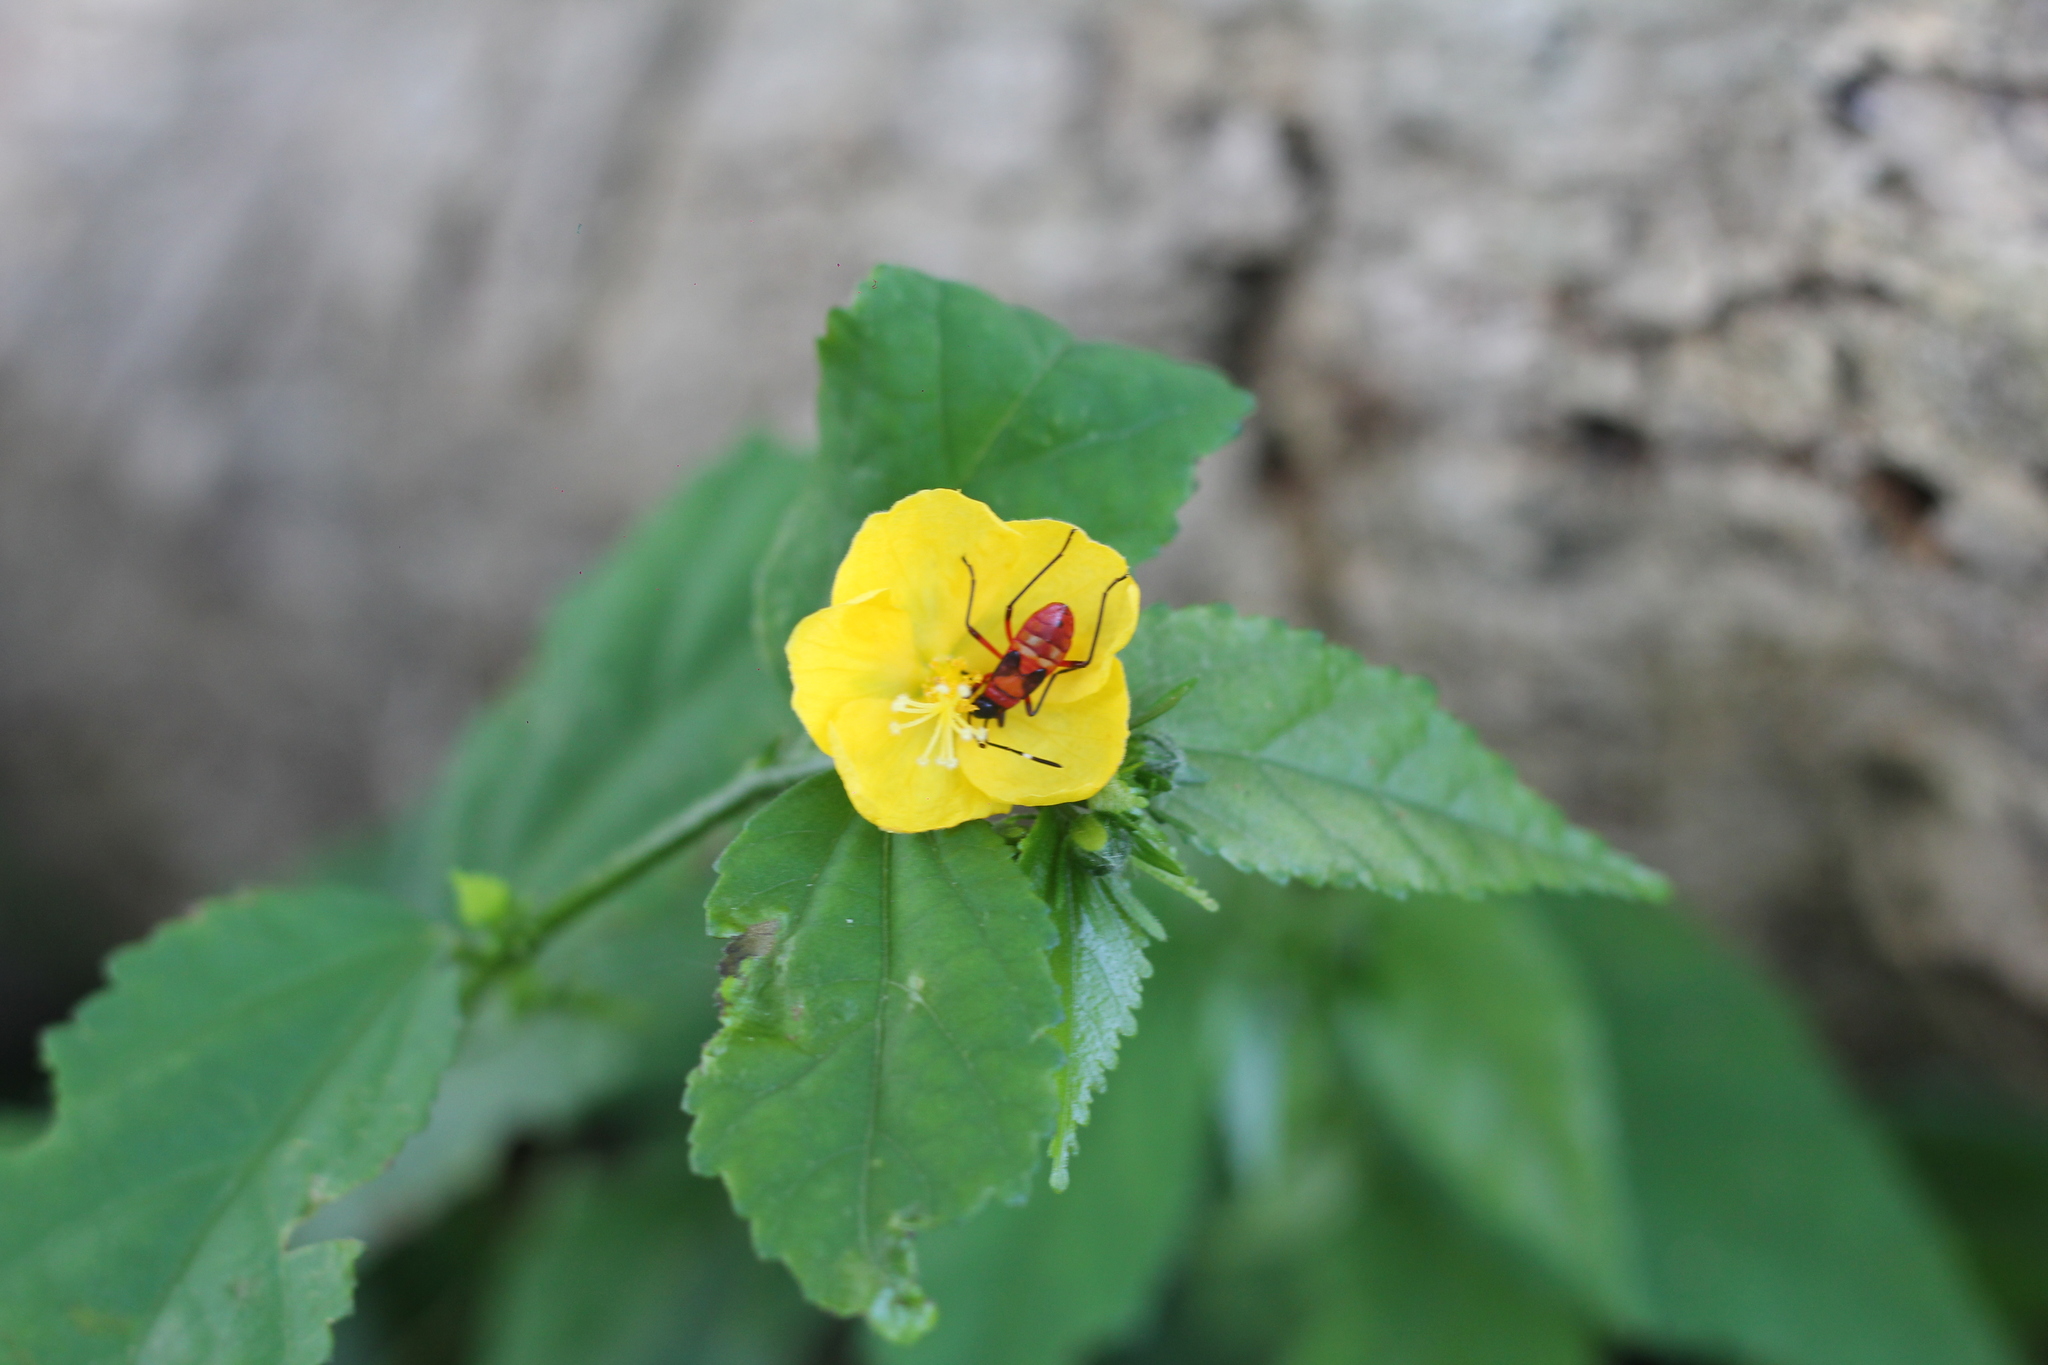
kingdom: Animalia
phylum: Arthropoda
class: Insecta
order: Hemiptera
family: Pyrrhocoridae
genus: Dysdercus
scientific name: Dysdercus albofasciatus
